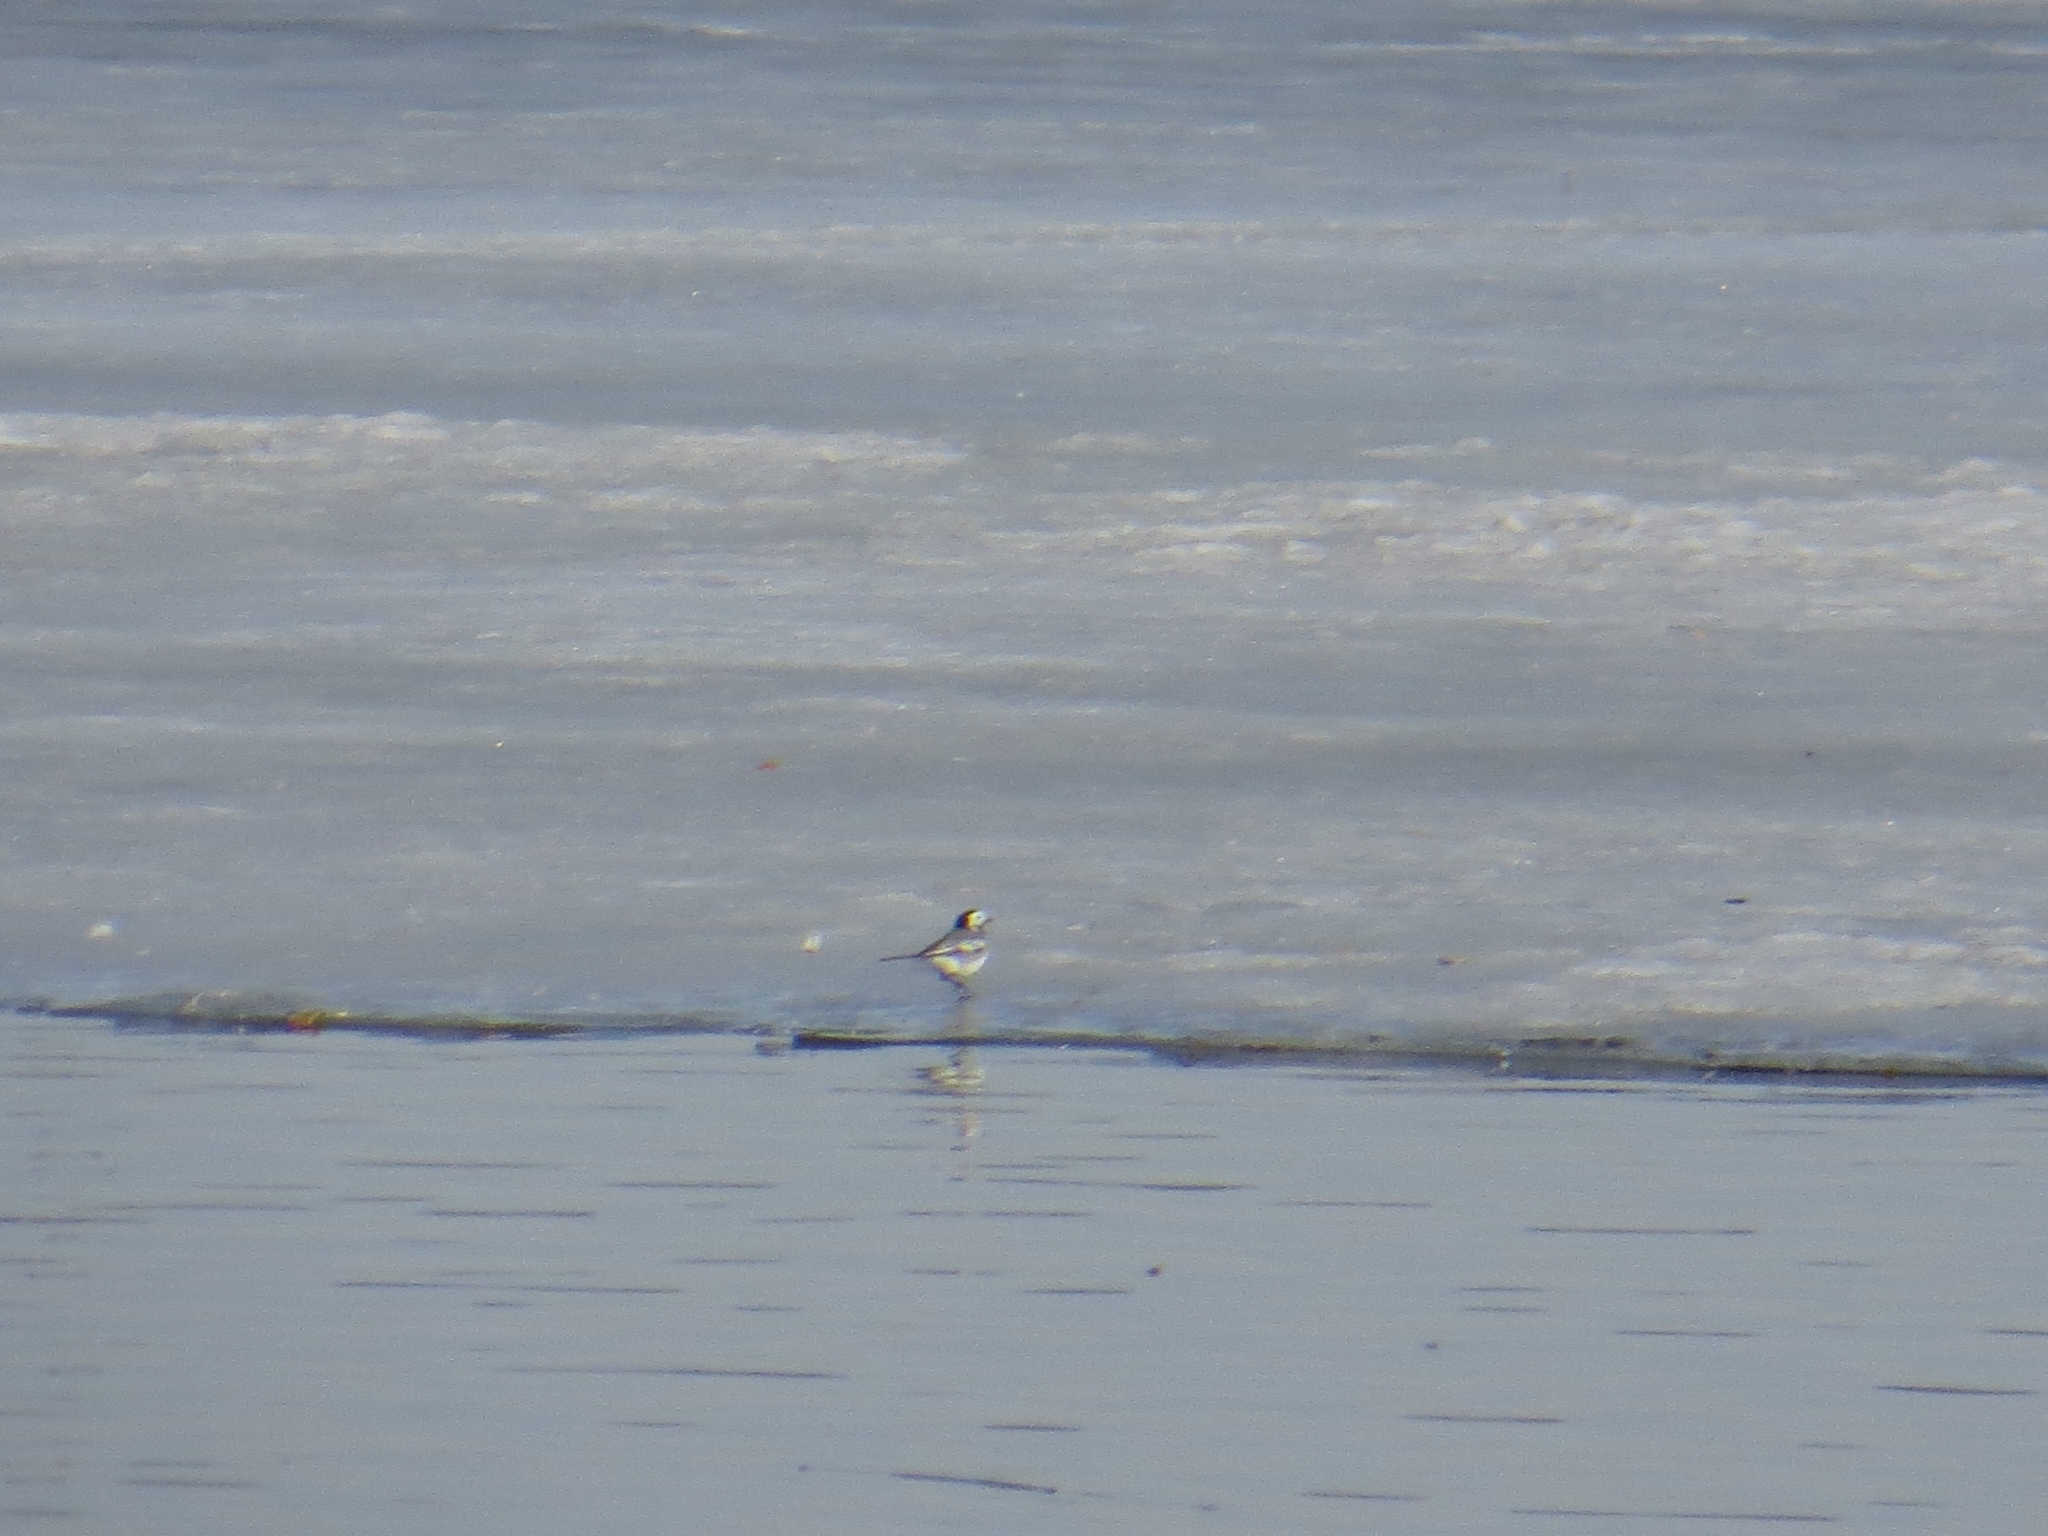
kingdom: Animalia
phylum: Chordata
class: Aves
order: Passeriformes
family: Motacillidae
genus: Motacilla
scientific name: Motacilla alba
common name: White wagtail
